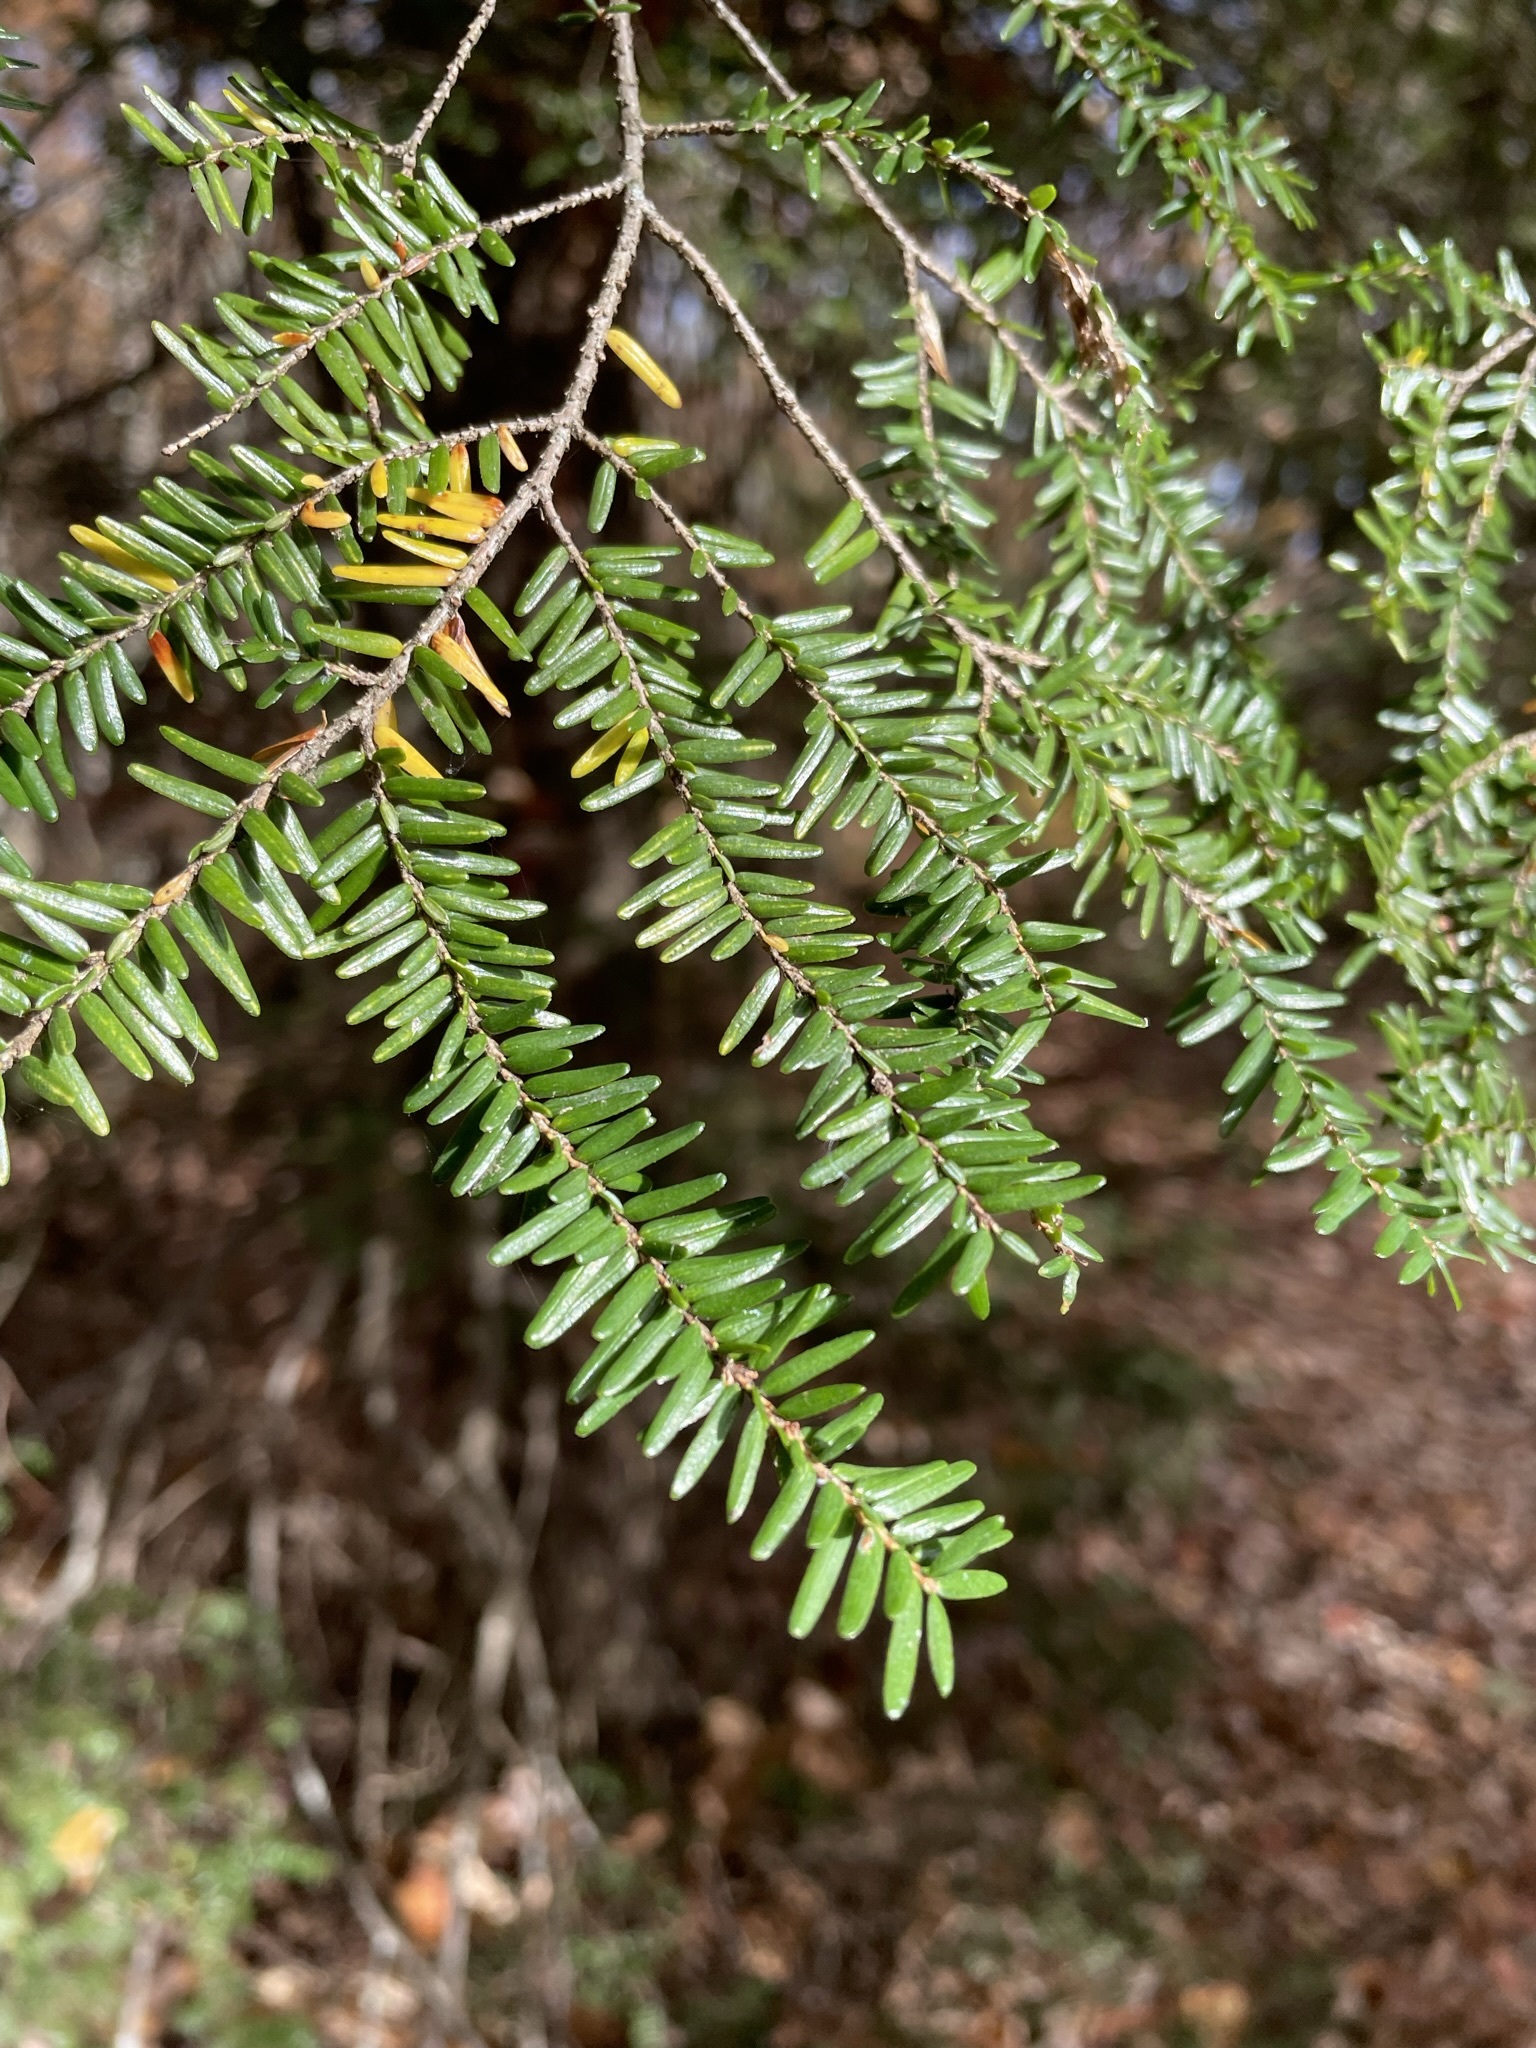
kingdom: Plantae
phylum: Tracheophyta
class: Pinopsida
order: Pinales
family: Pinaceae
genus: Tsuga
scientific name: Tsuga canadensis
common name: Eastern hemlock
